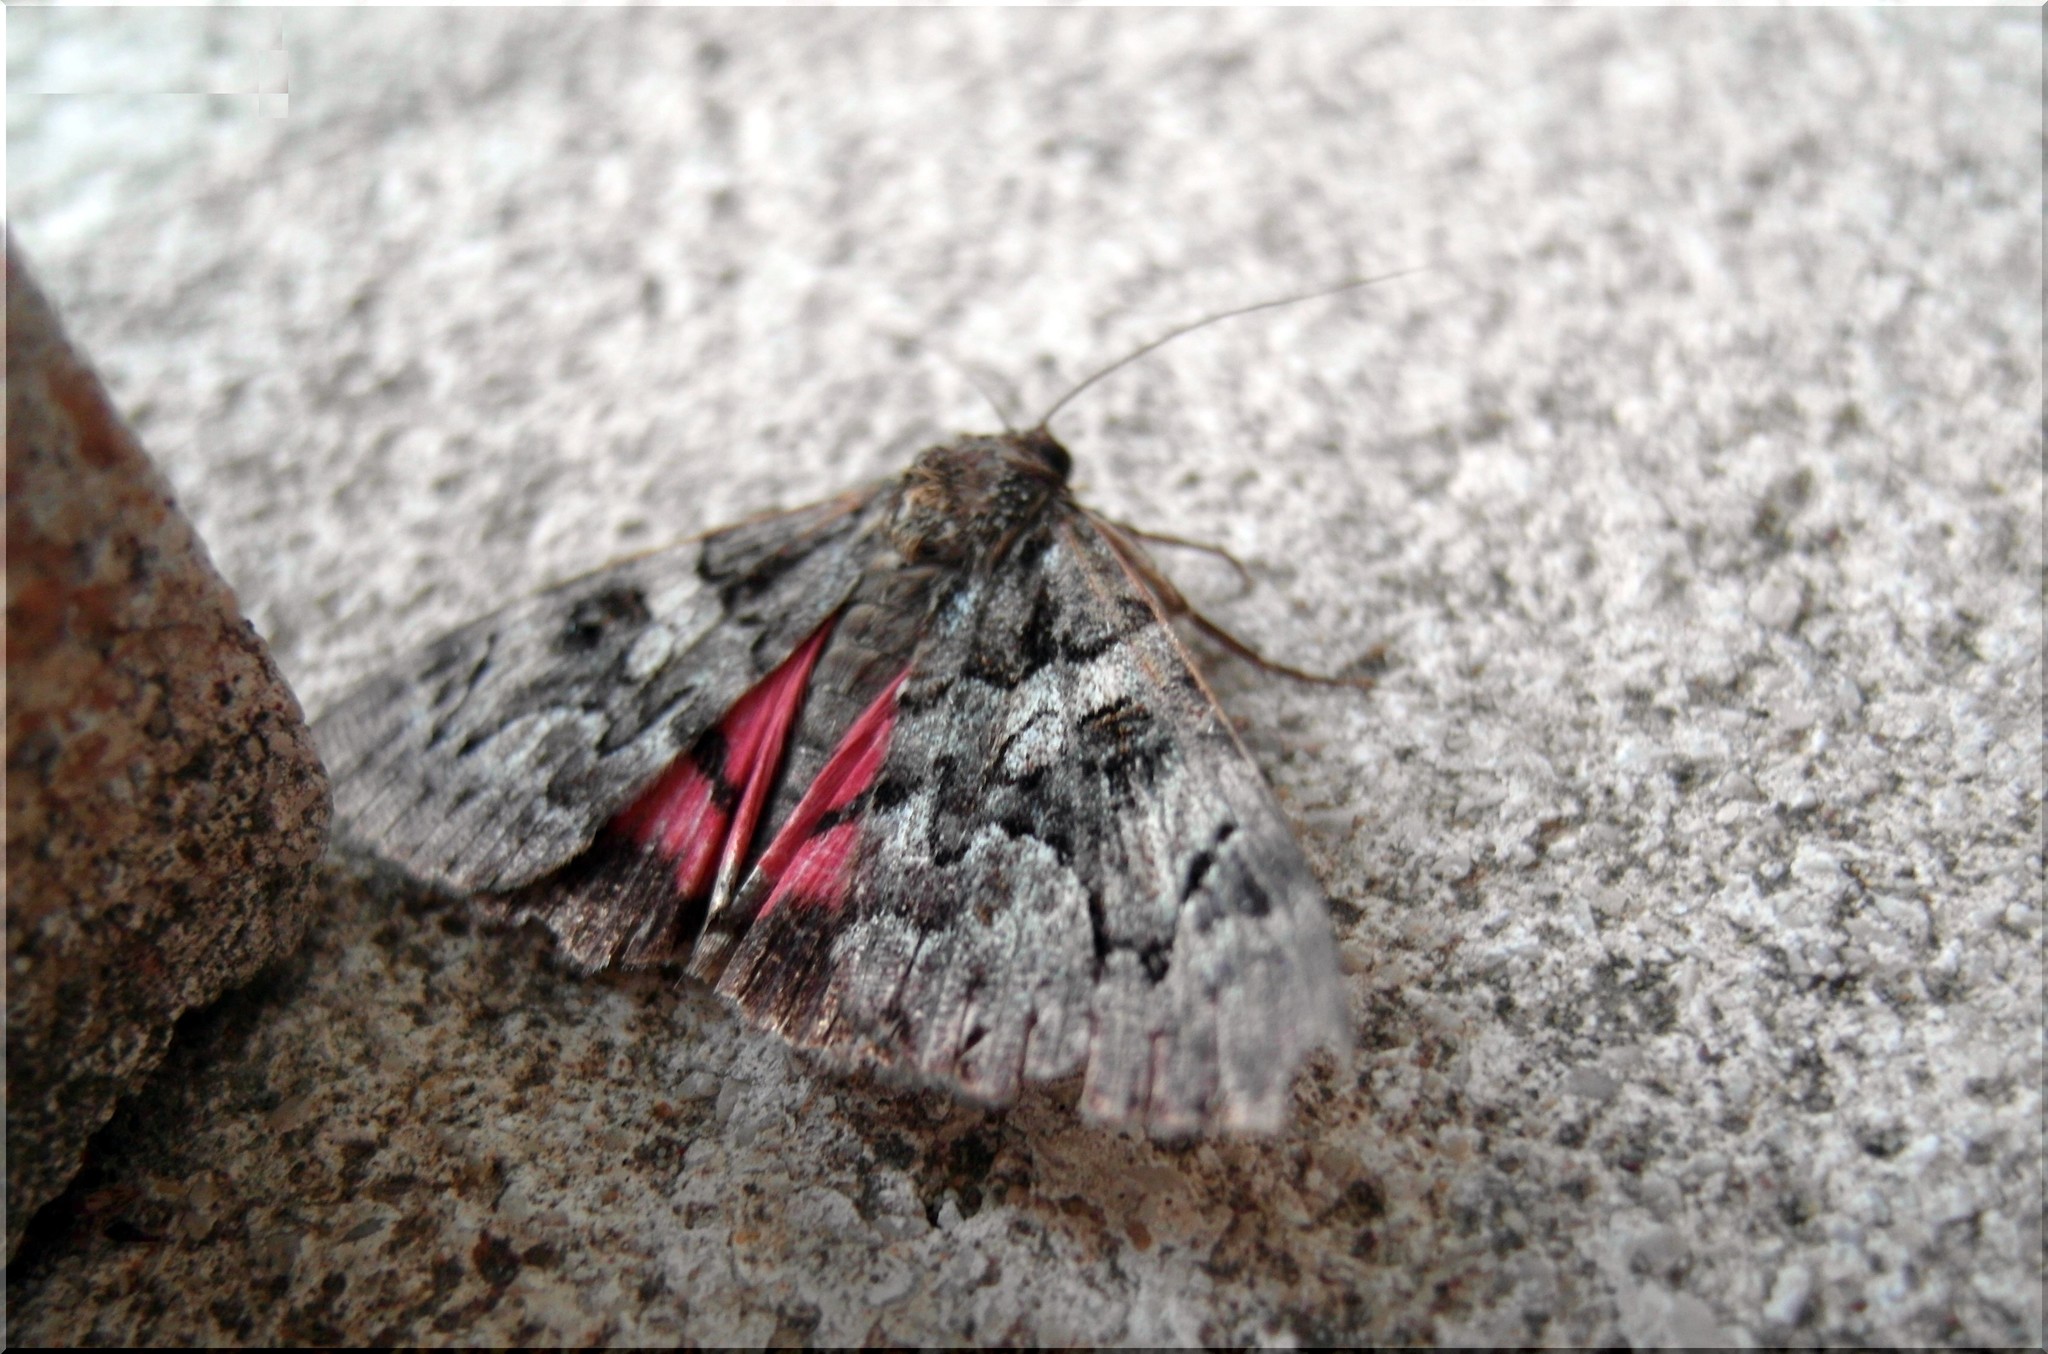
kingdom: Animalia
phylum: Arthropoda
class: Insecta
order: Lepidoptera
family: Erebidae
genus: Catocala
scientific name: Catocala coniuncta
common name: Minsmere crimson underwing
